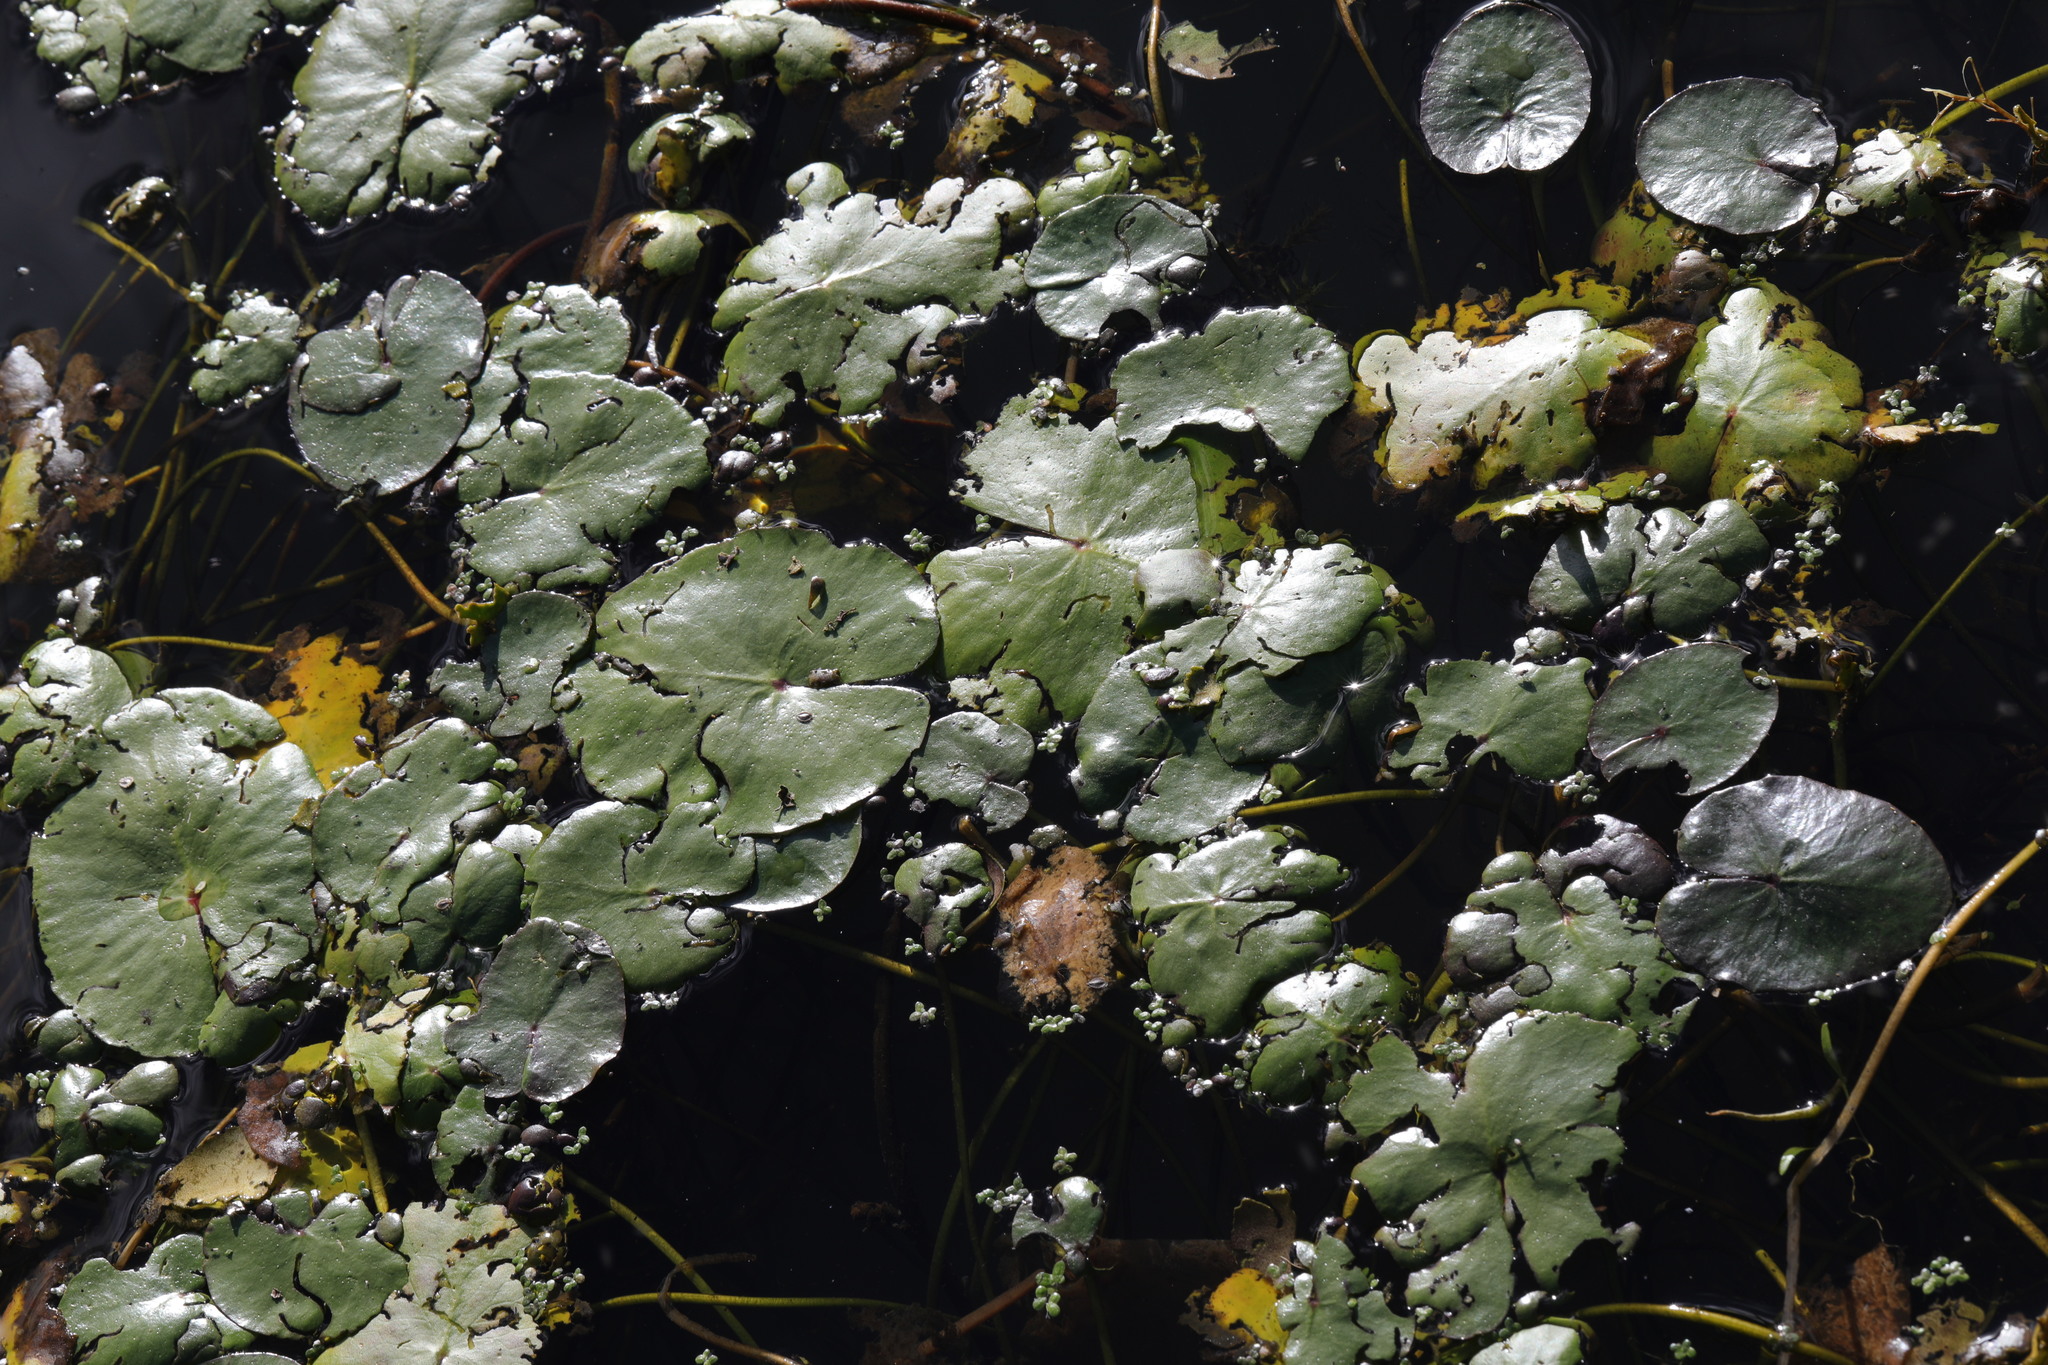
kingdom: Plantae
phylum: Tracheophyta
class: Magnoliopsida
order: Asterales
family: Menyanthaceae
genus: Nymphoides
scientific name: Nymphoides peltata
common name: Fringed water-lily
